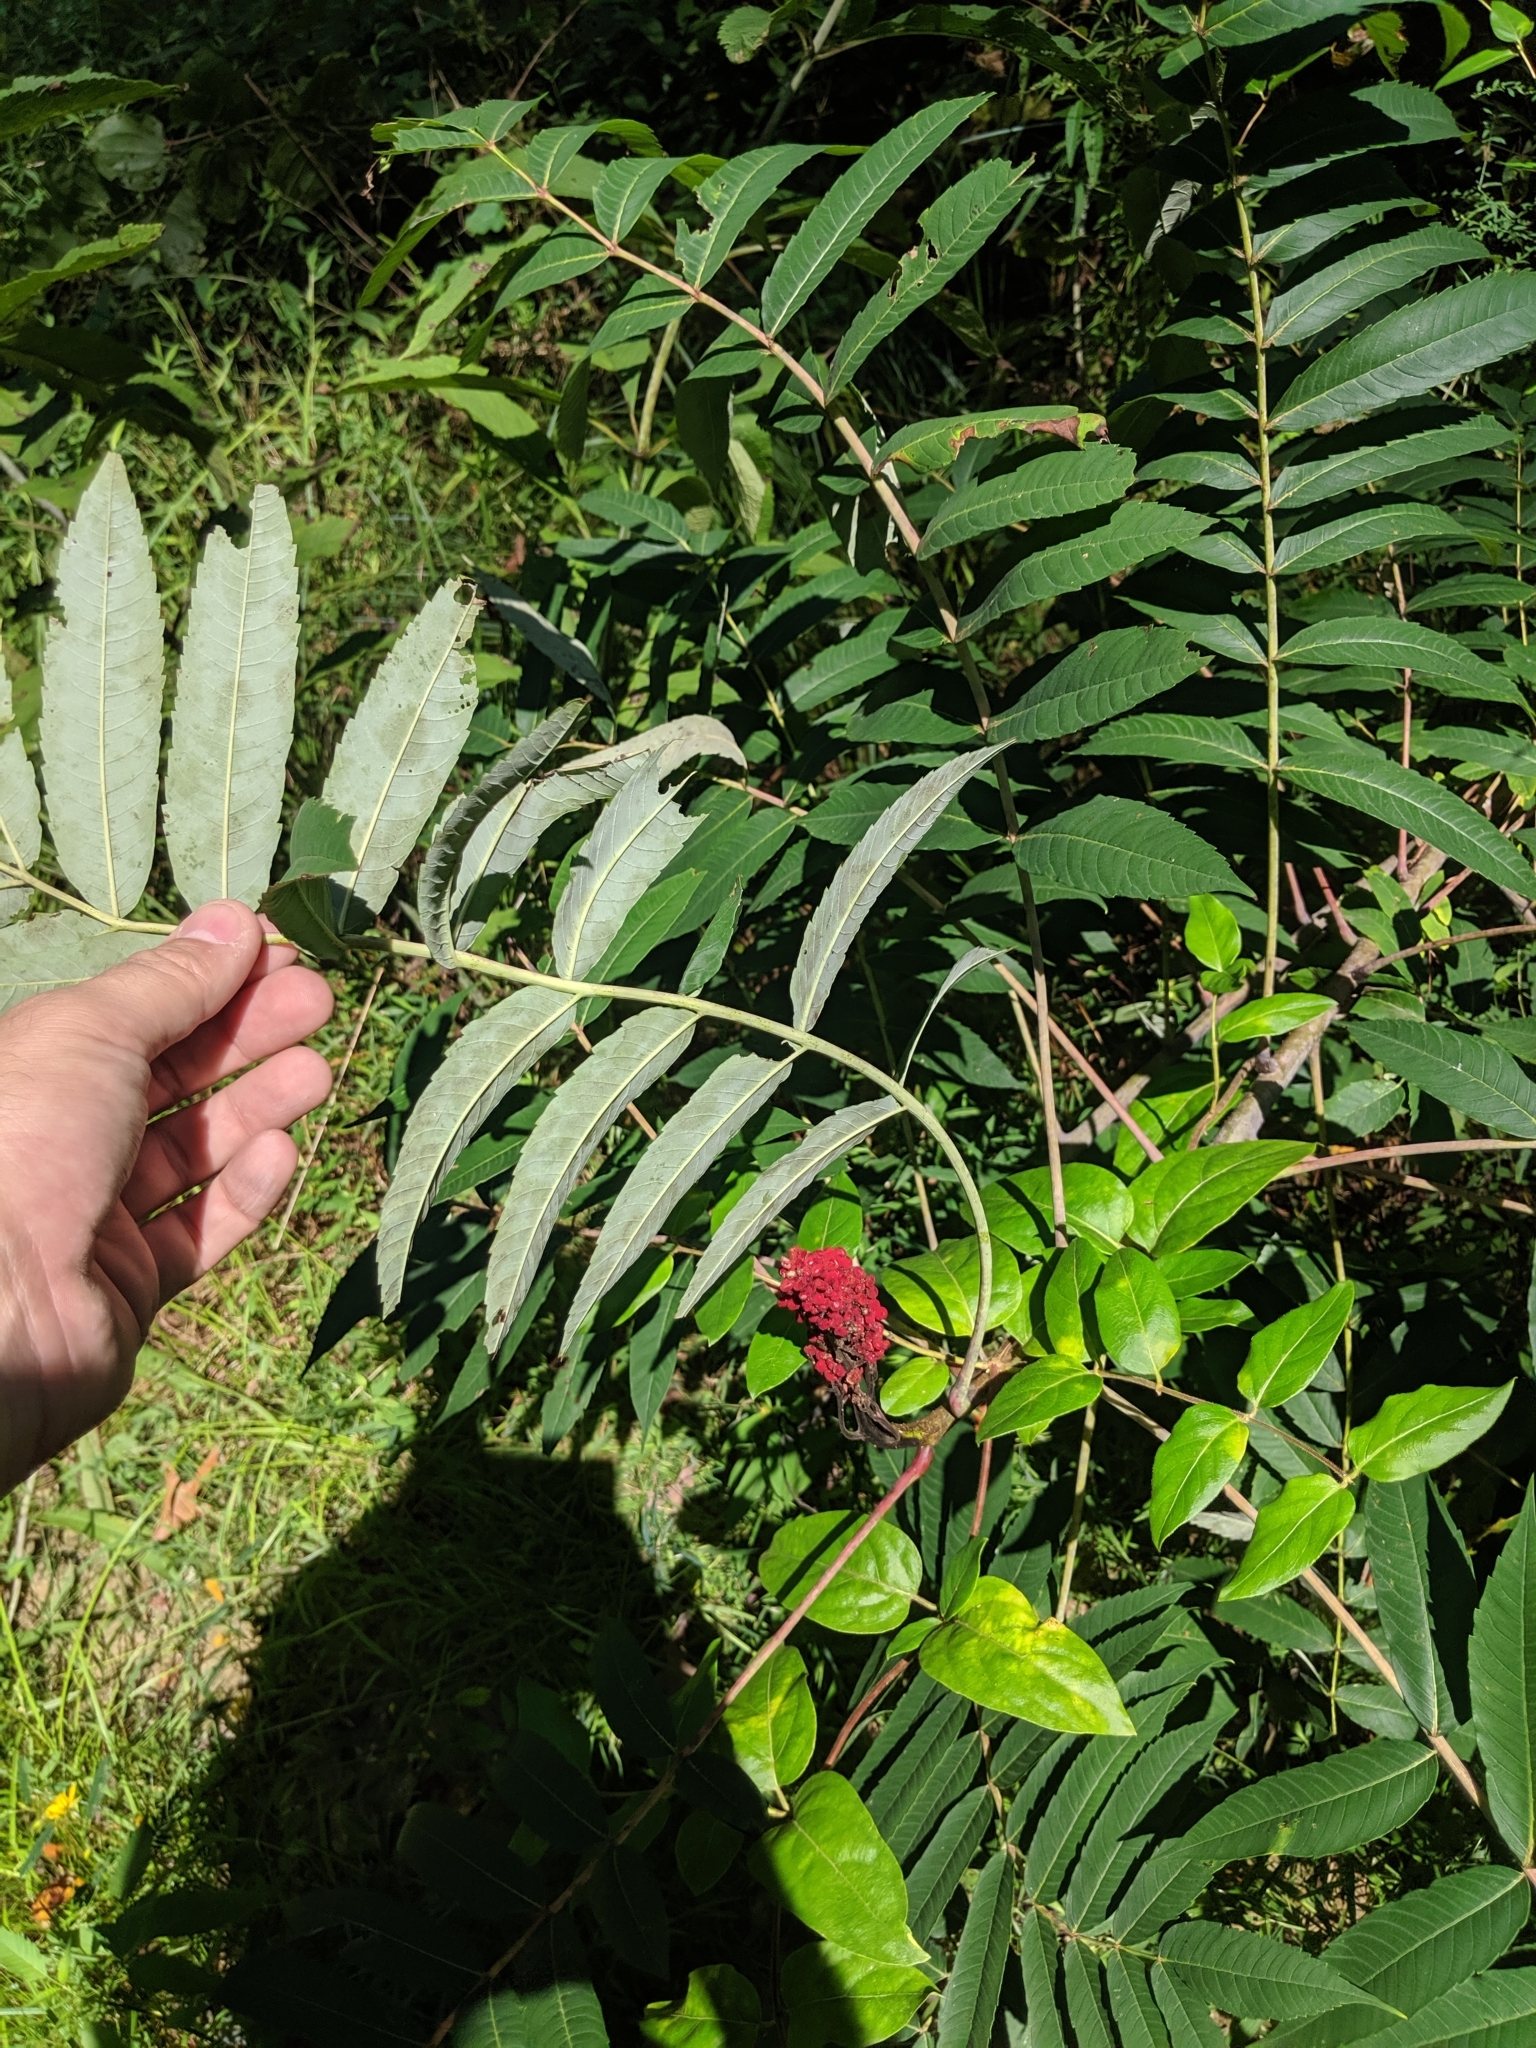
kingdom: Plantae
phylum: Tracheophyta
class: Magnoliopsida
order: Sapindales
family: Anacardiaceae
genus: Rhus
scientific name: Rhus glabra
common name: Scarlet sumac
